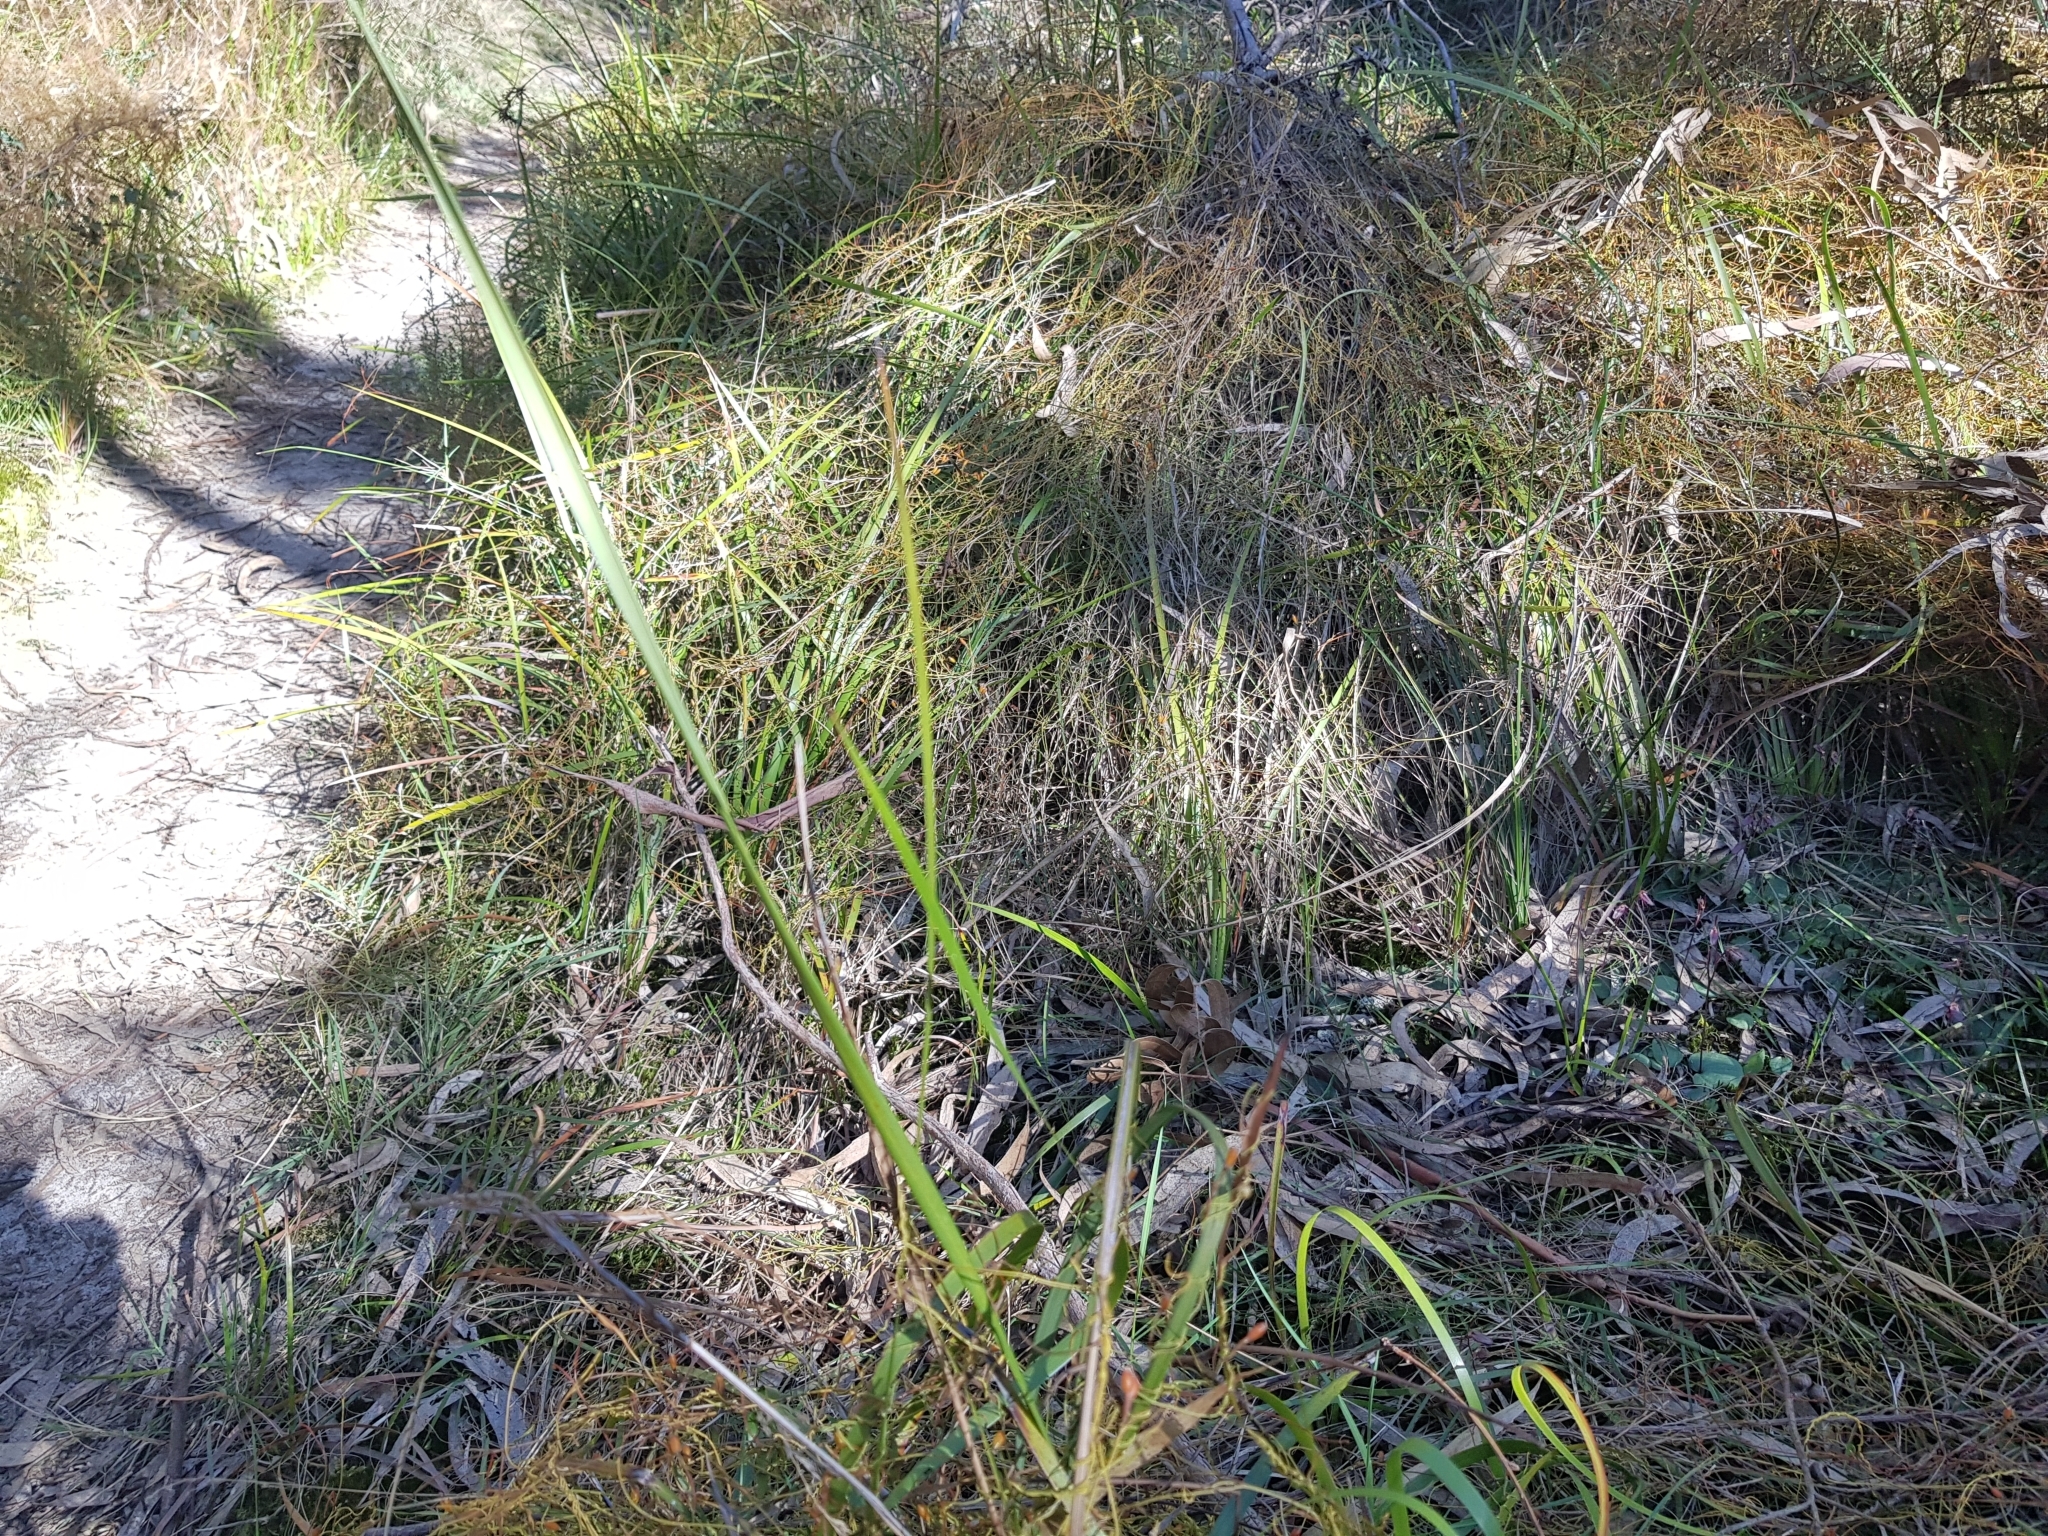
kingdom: Plantae
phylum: Tracheophyta
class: Liliopsida
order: Asparagales
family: Orchidaceae
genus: Cyrtostylis
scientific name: Cyrtostylis reniformis
